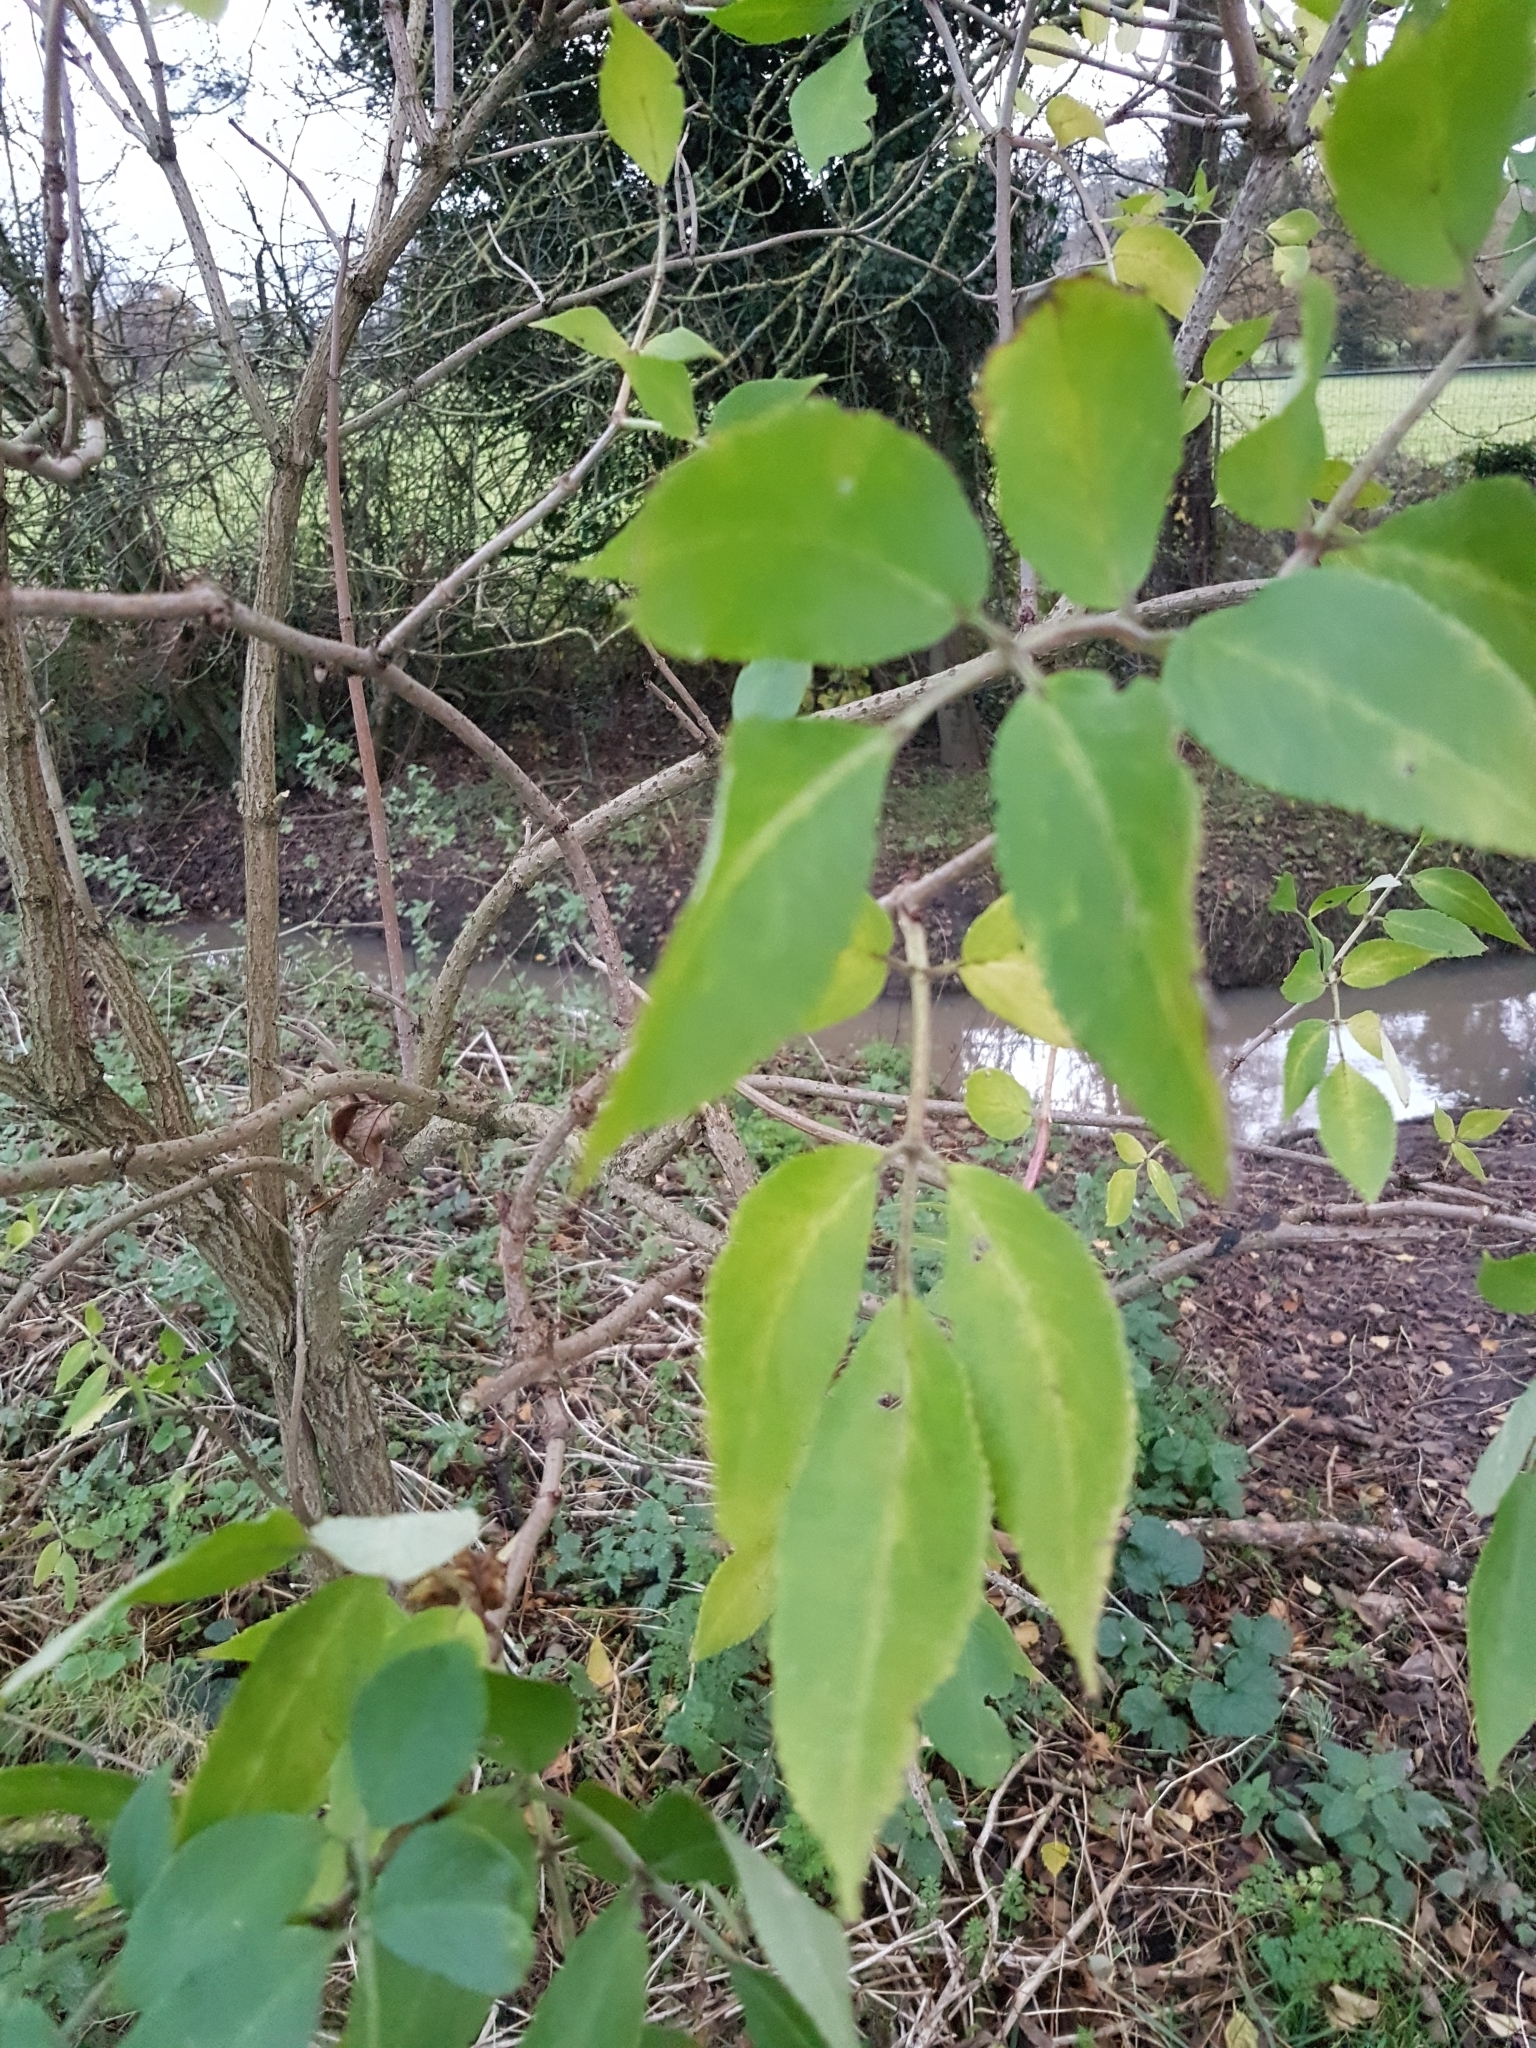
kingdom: Plantae
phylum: Tracheophyta
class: Magnoliopsida
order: Dipsacales
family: Viburnaceae
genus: Sambucus
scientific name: Sambucus nigra
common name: Elder
